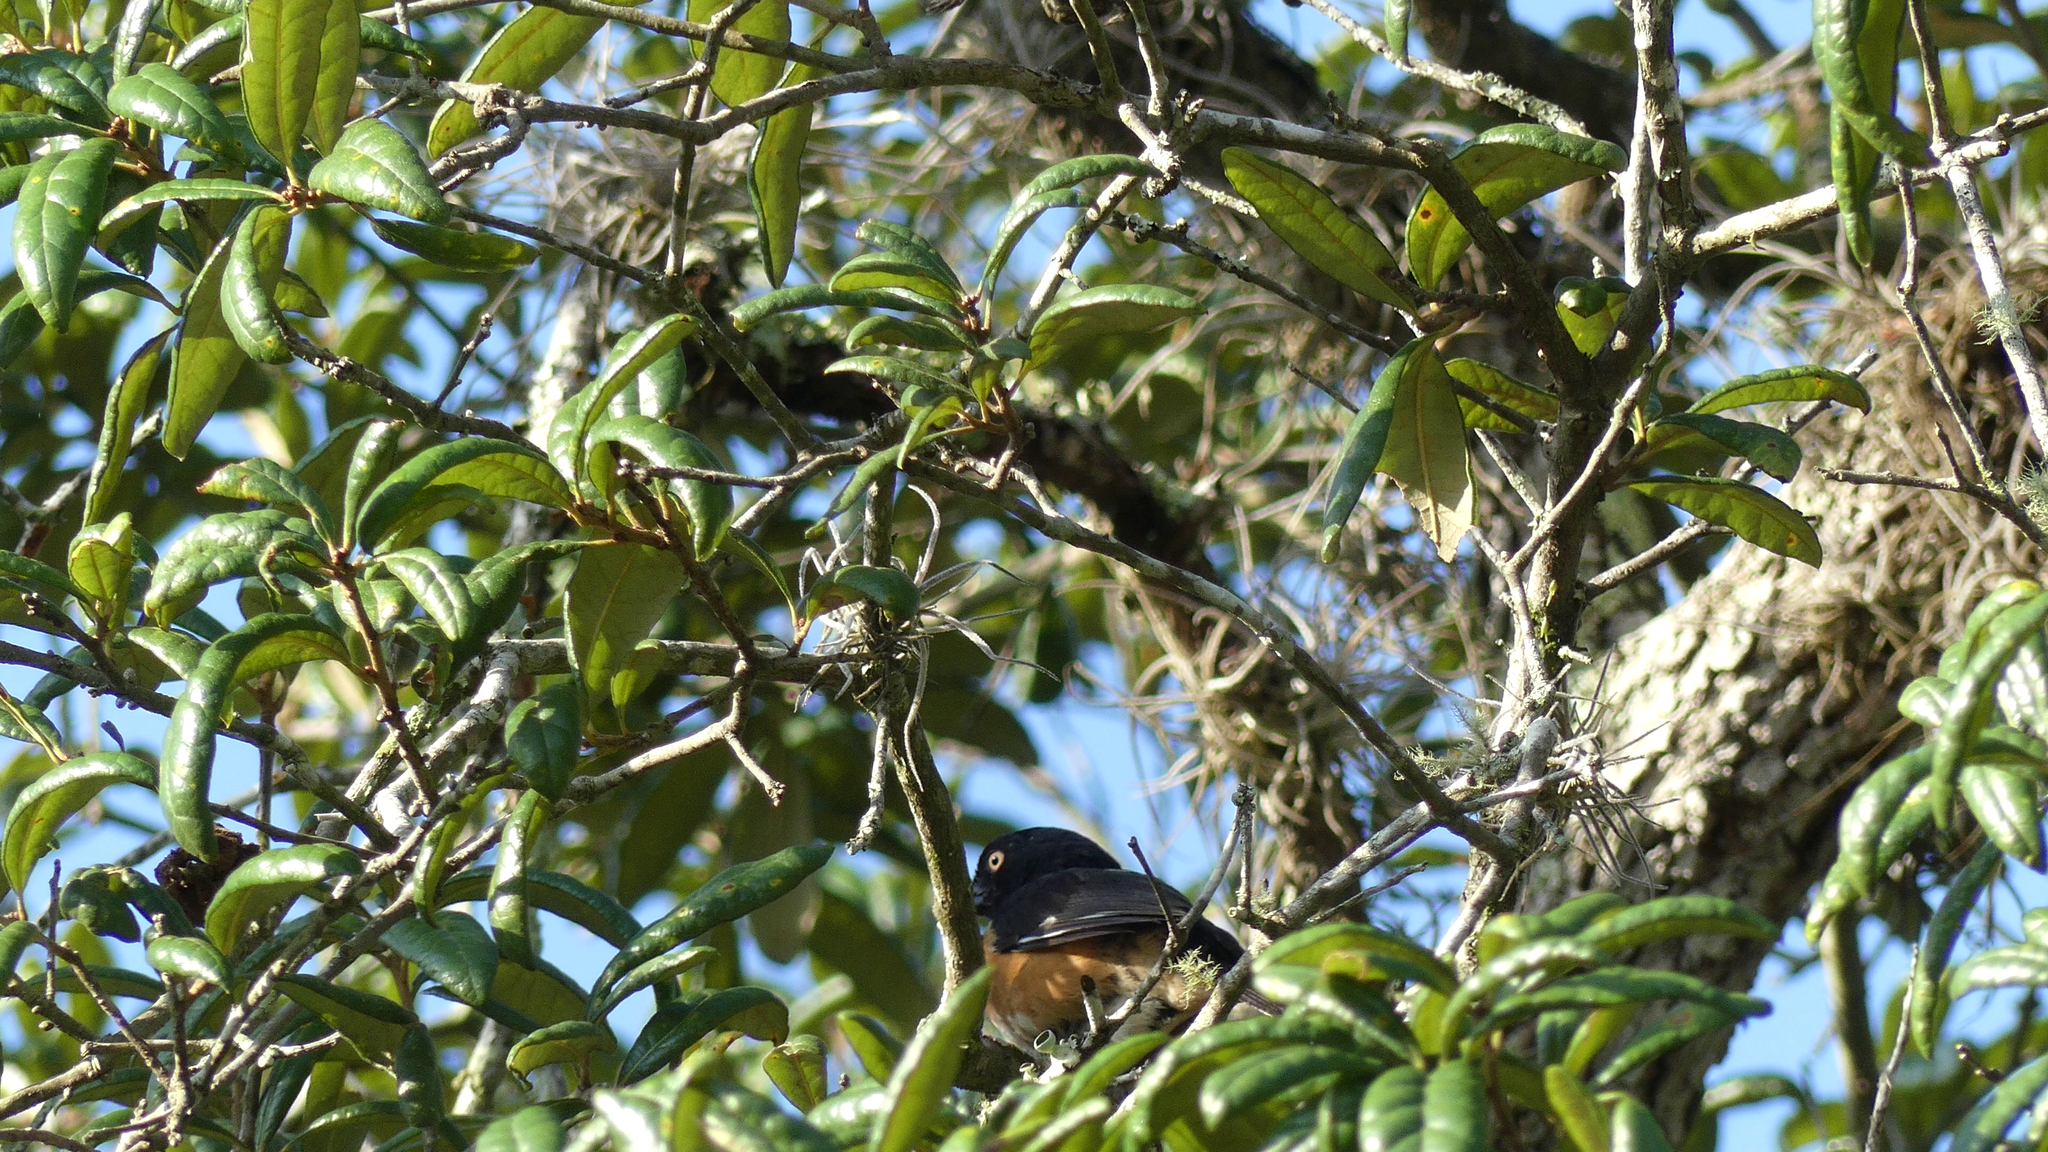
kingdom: Animalia
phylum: Chordata
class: Aves
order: Passeriformes
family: Passerellidae
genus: Pipilo
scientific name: Pipilo erythrophthalmus
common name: Eastern towhee
